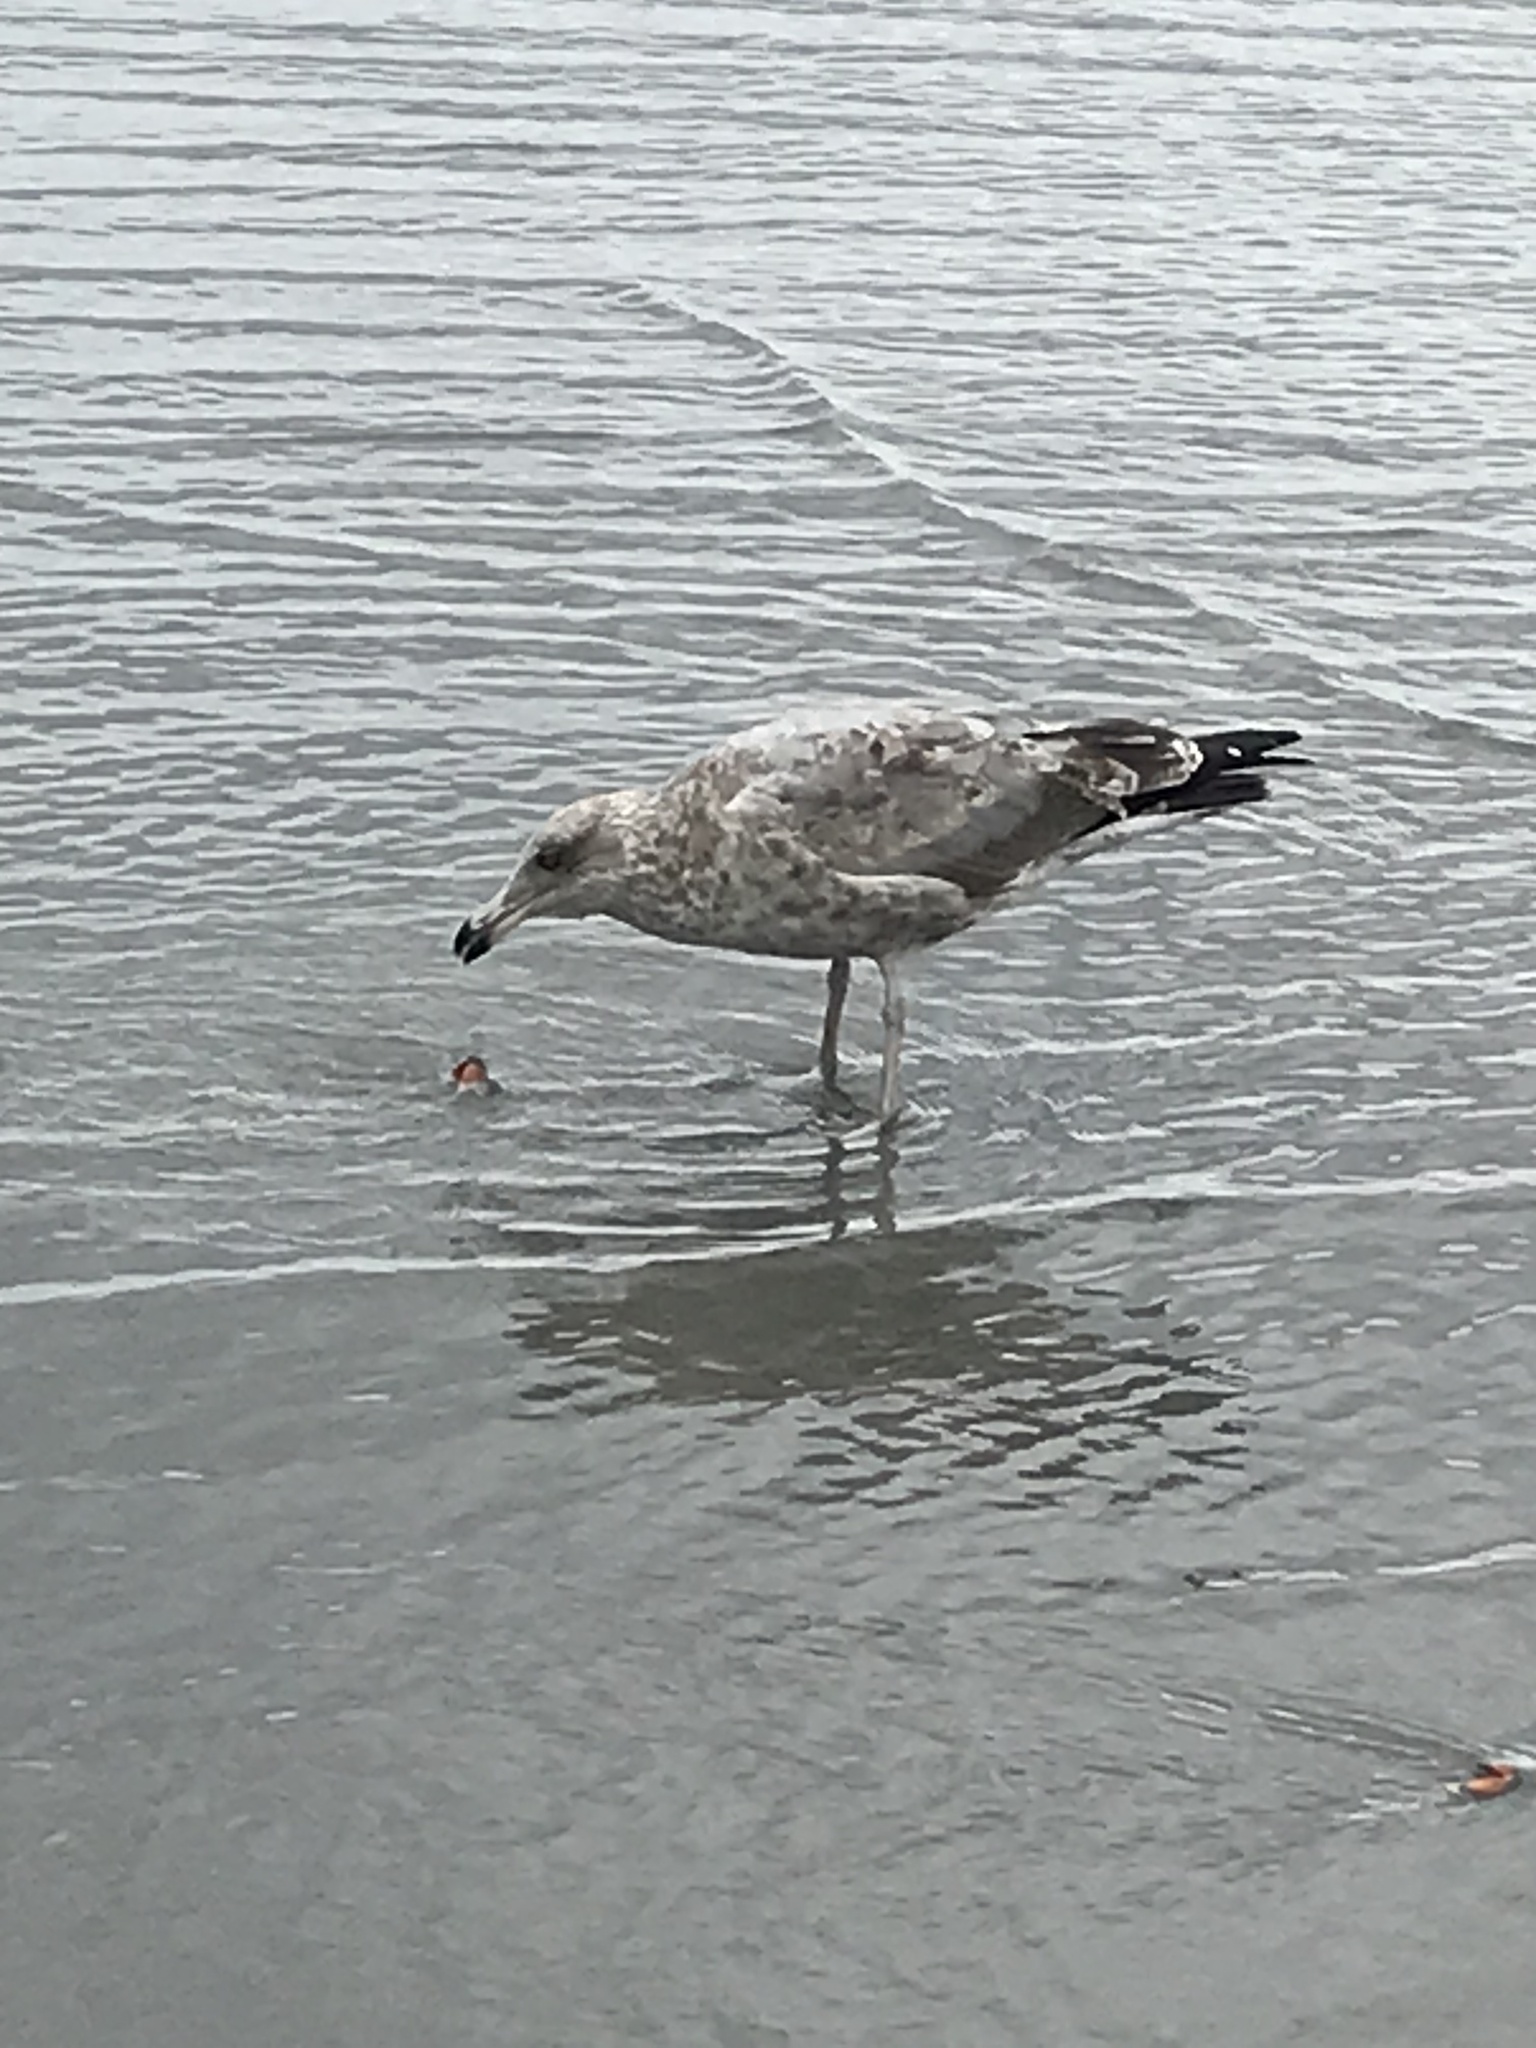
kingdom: Animalia
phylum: Arthropoda
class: Malacostraca
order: Decapoda
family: Carcinidae
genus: Carcinus
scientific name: Carcinus maenas
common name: European green crab
